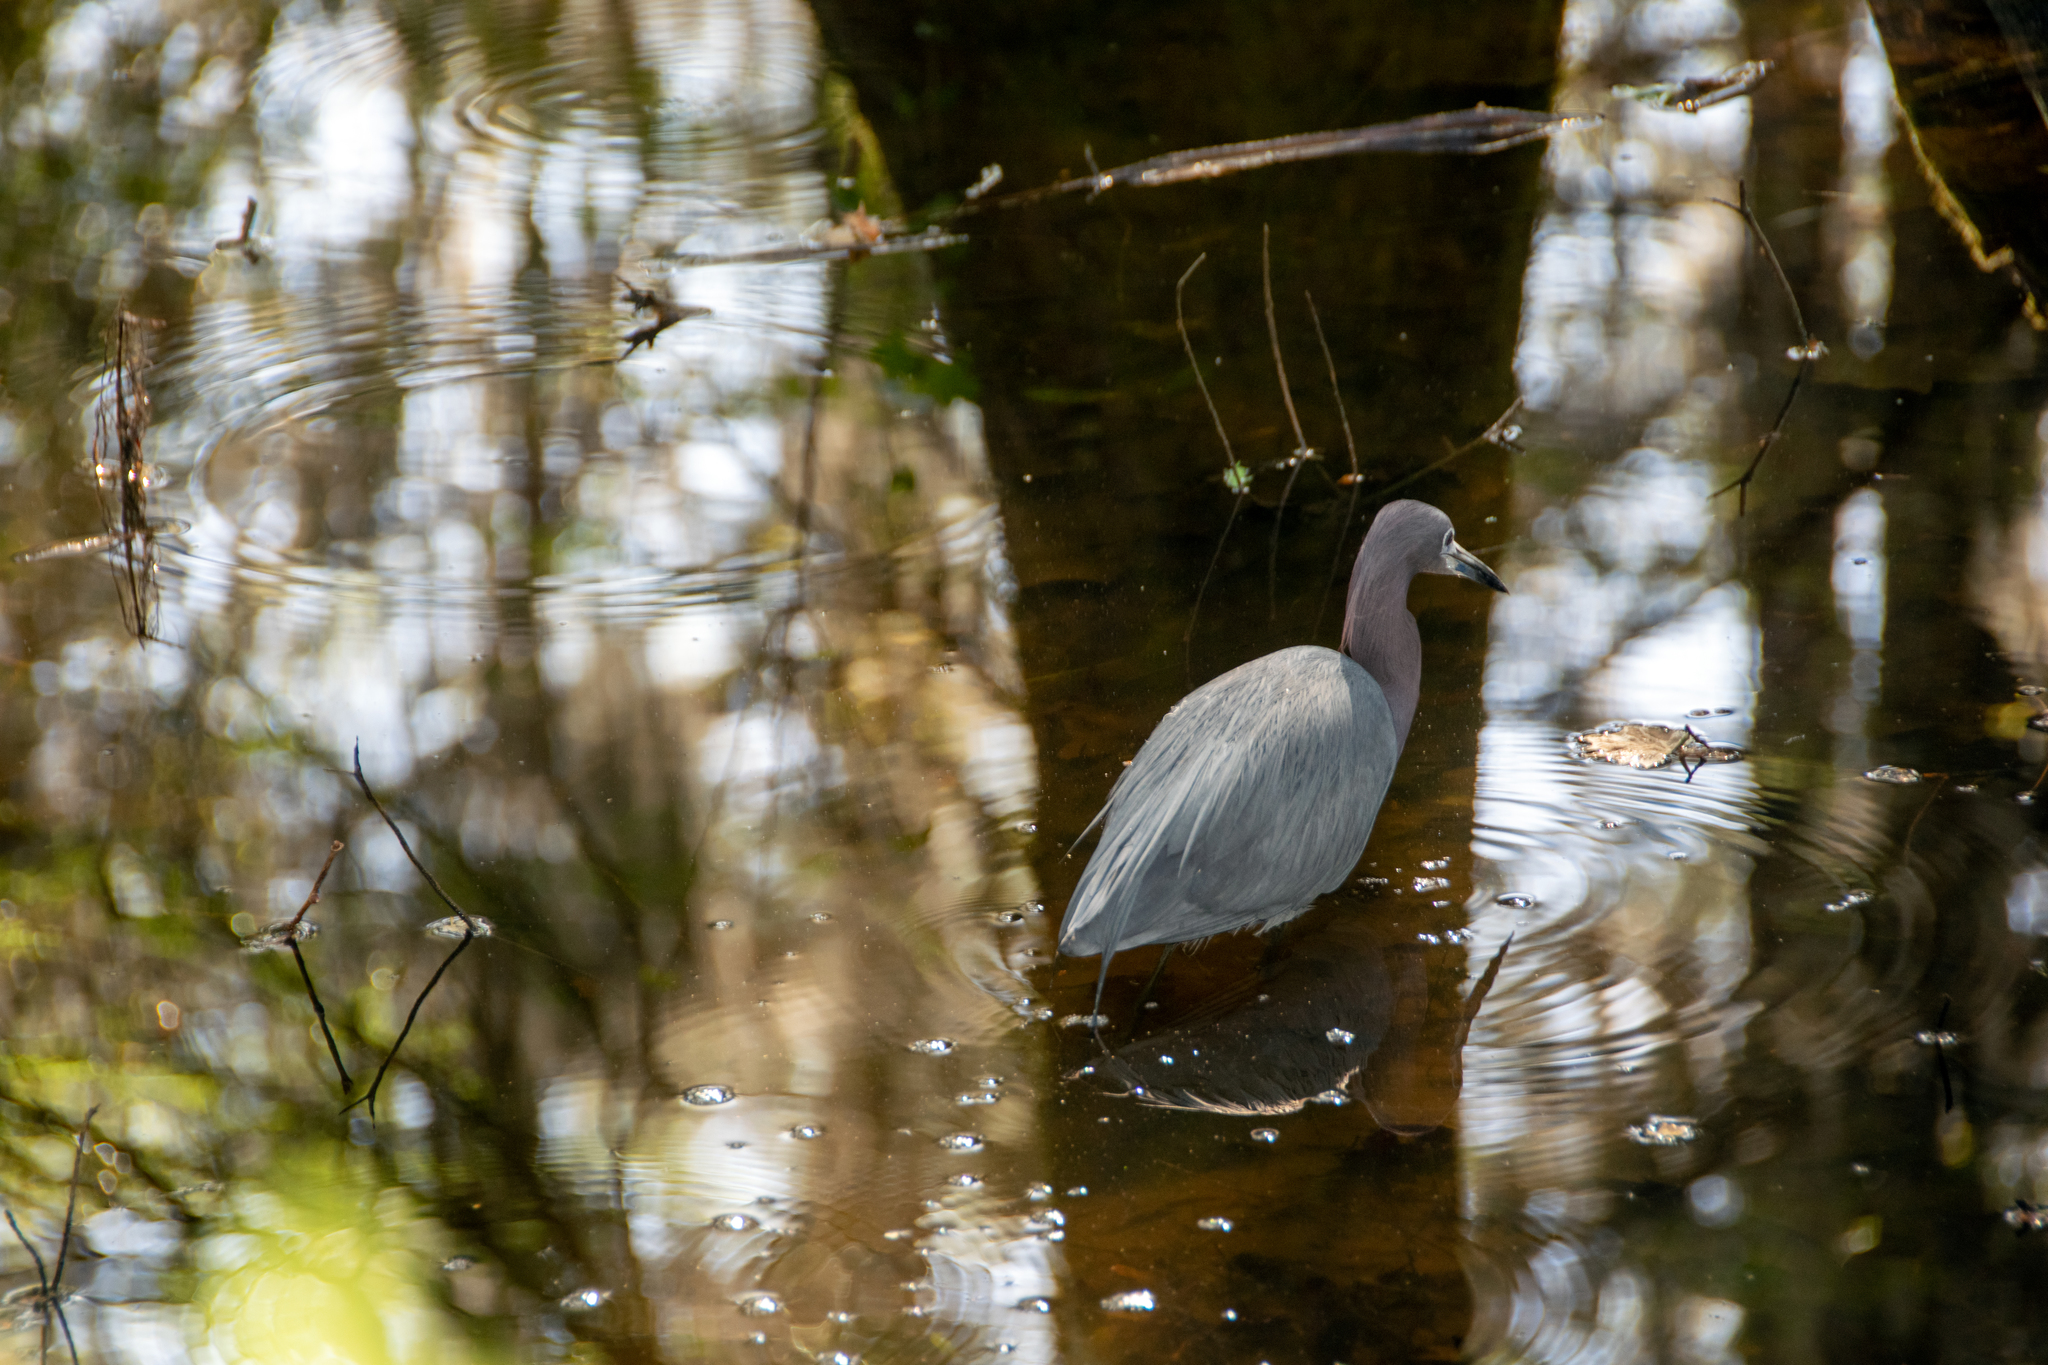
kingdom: Animalia
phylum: Chordata
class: Aves
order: Pelecaniformes
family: Ardeidae
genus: Egretta
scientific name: Egretta caerulea
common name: Little blue heron
